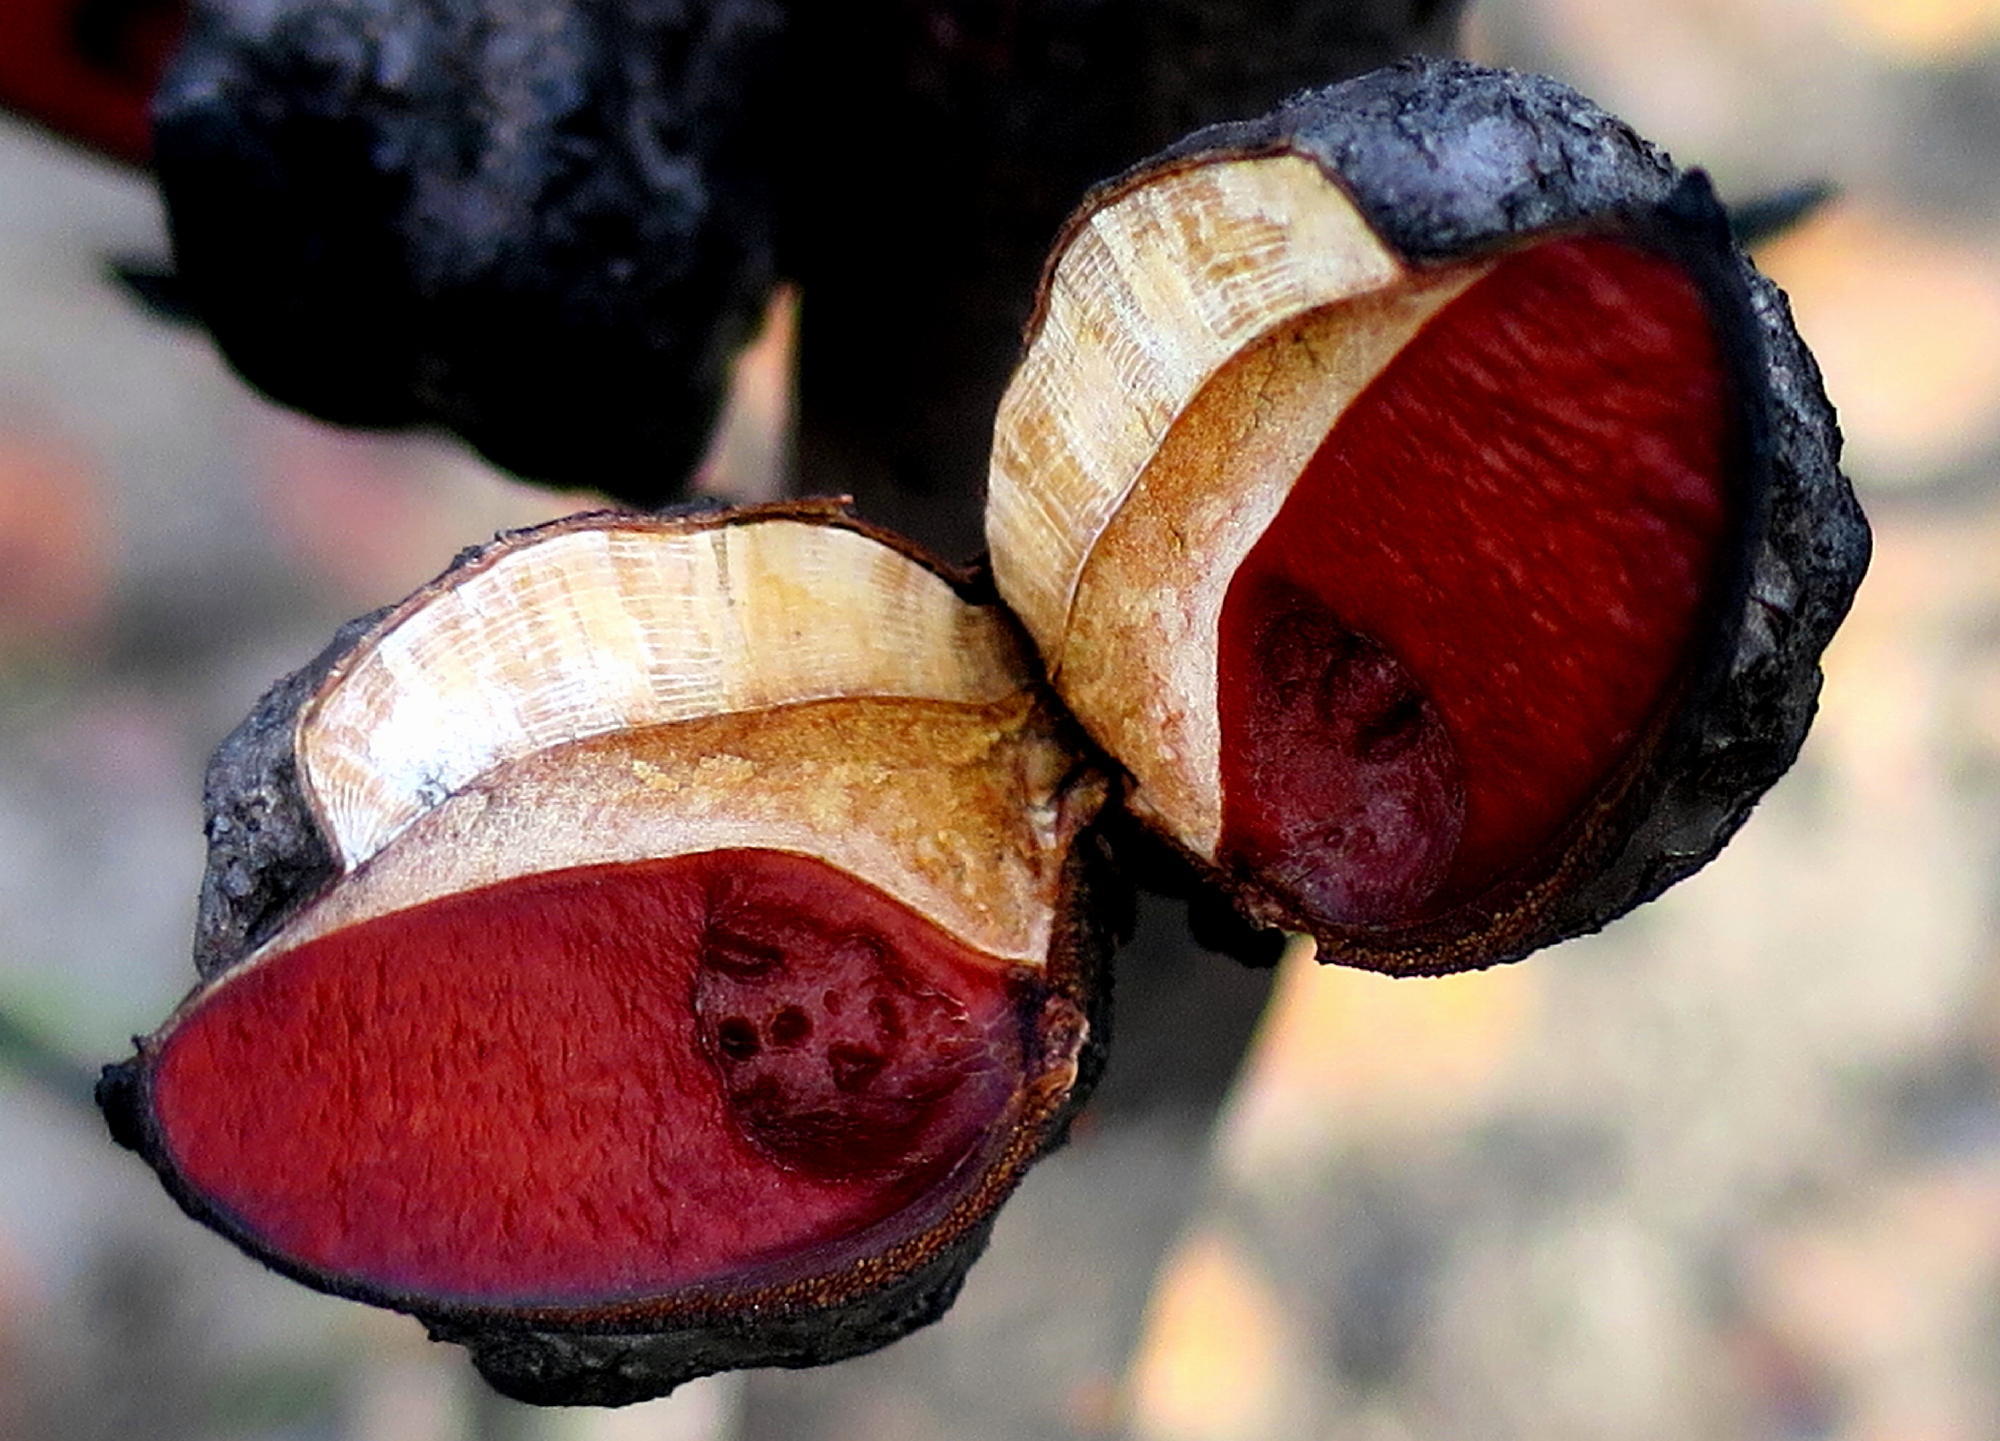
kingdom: Plantae
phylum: Tracheophyta
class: Magnoliopsida
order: Proteales
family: Proteaceae
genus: Hakea
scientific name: Hakea sericea
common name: Needle bush
